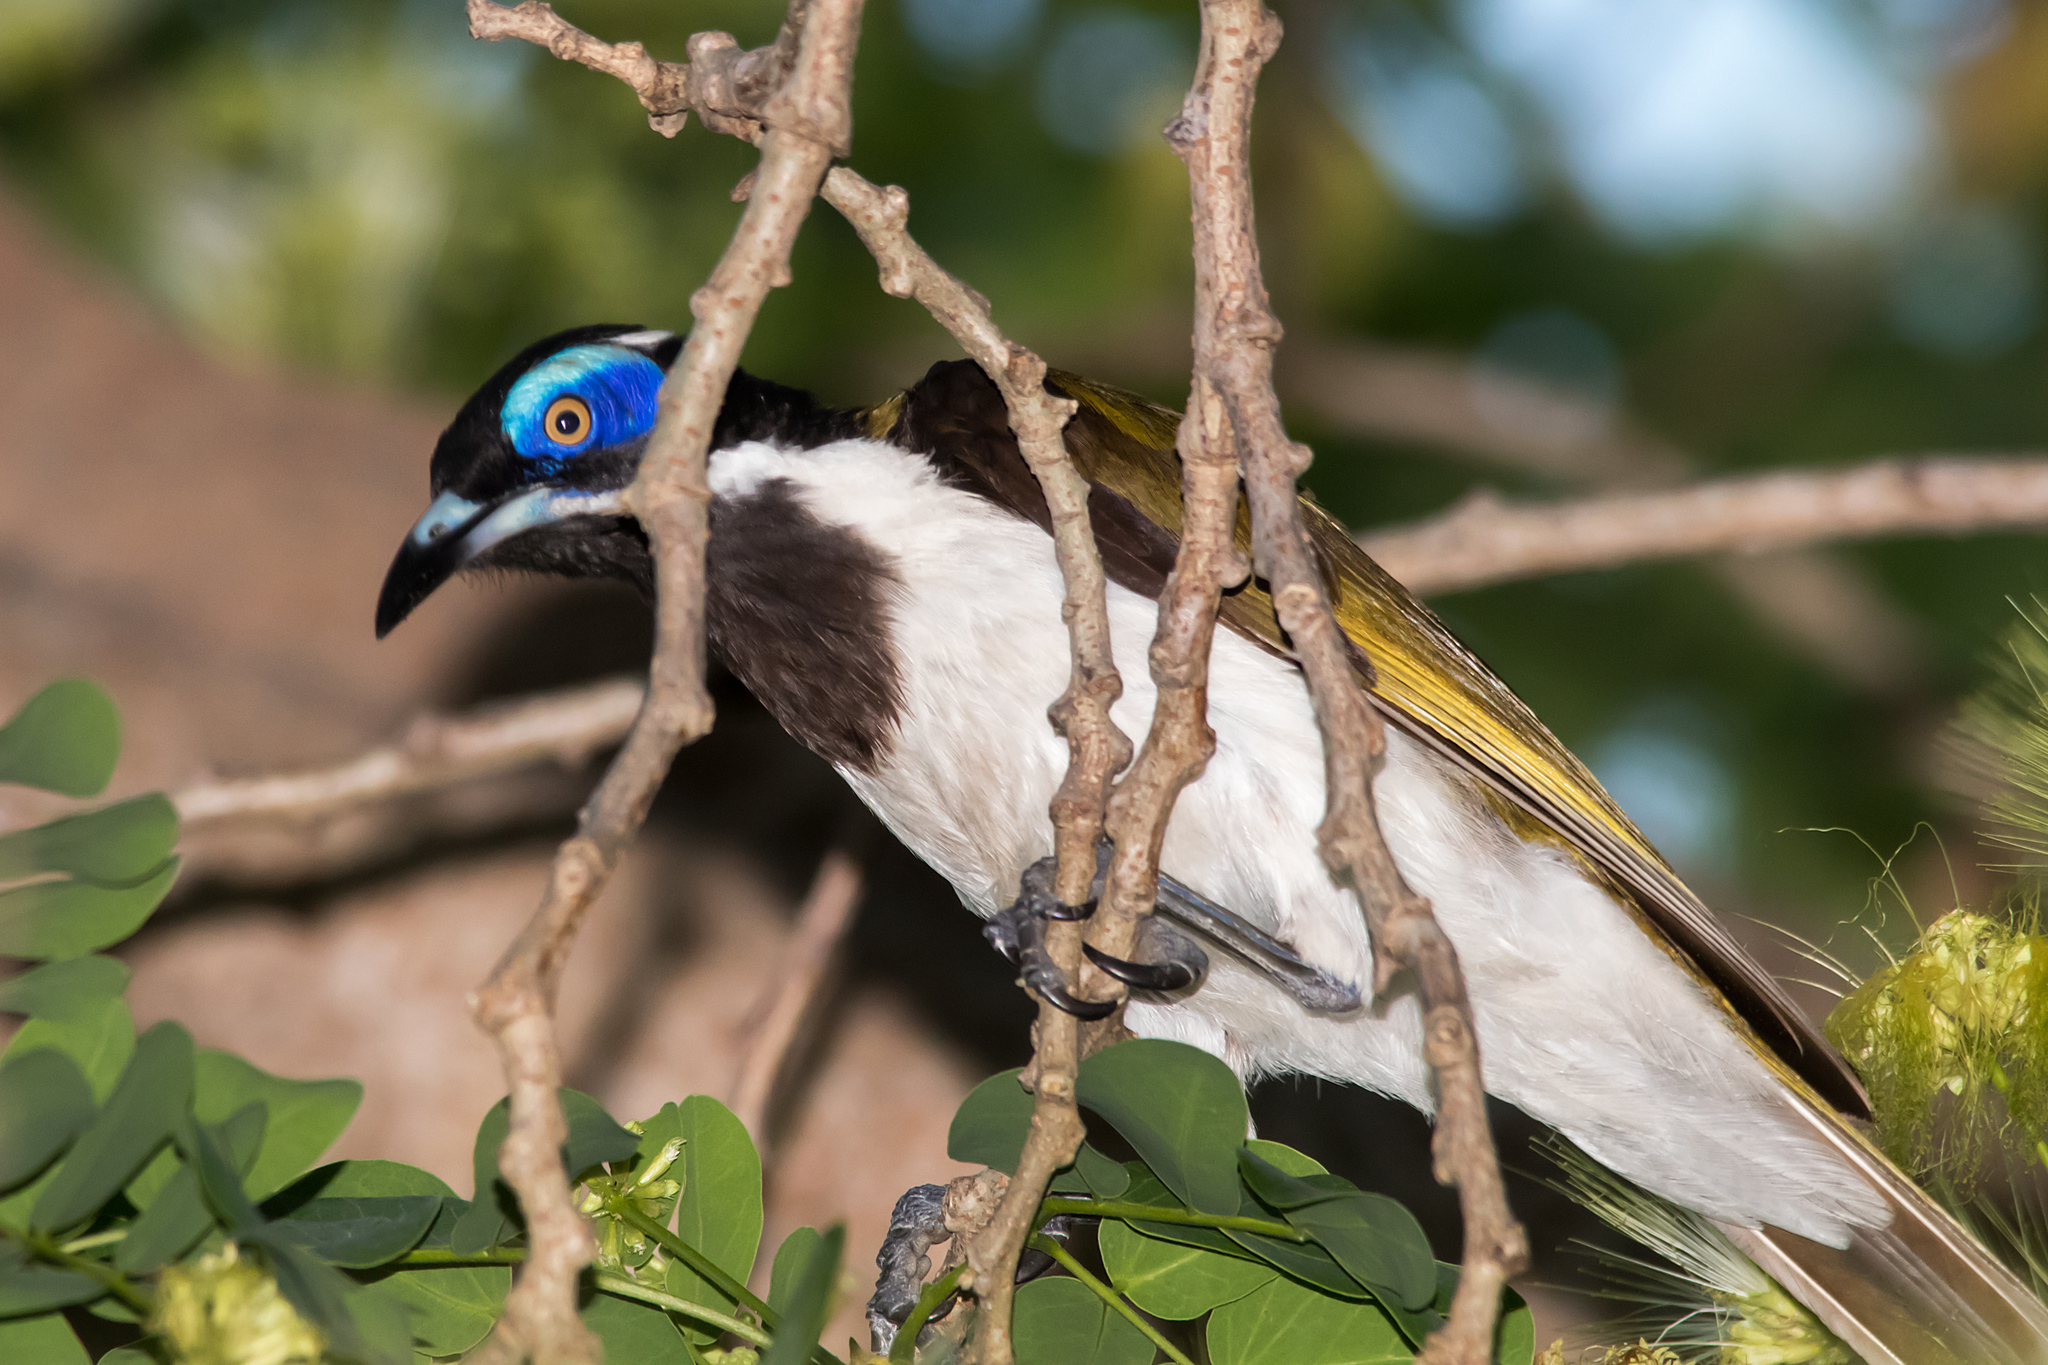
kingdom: Animalia
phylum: Chordata
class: Aves
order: Passeriformes
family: Meliphagidae
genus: Entomyzon
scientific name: Entomyzon cyanotis
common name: Blue-faced honeyeater
